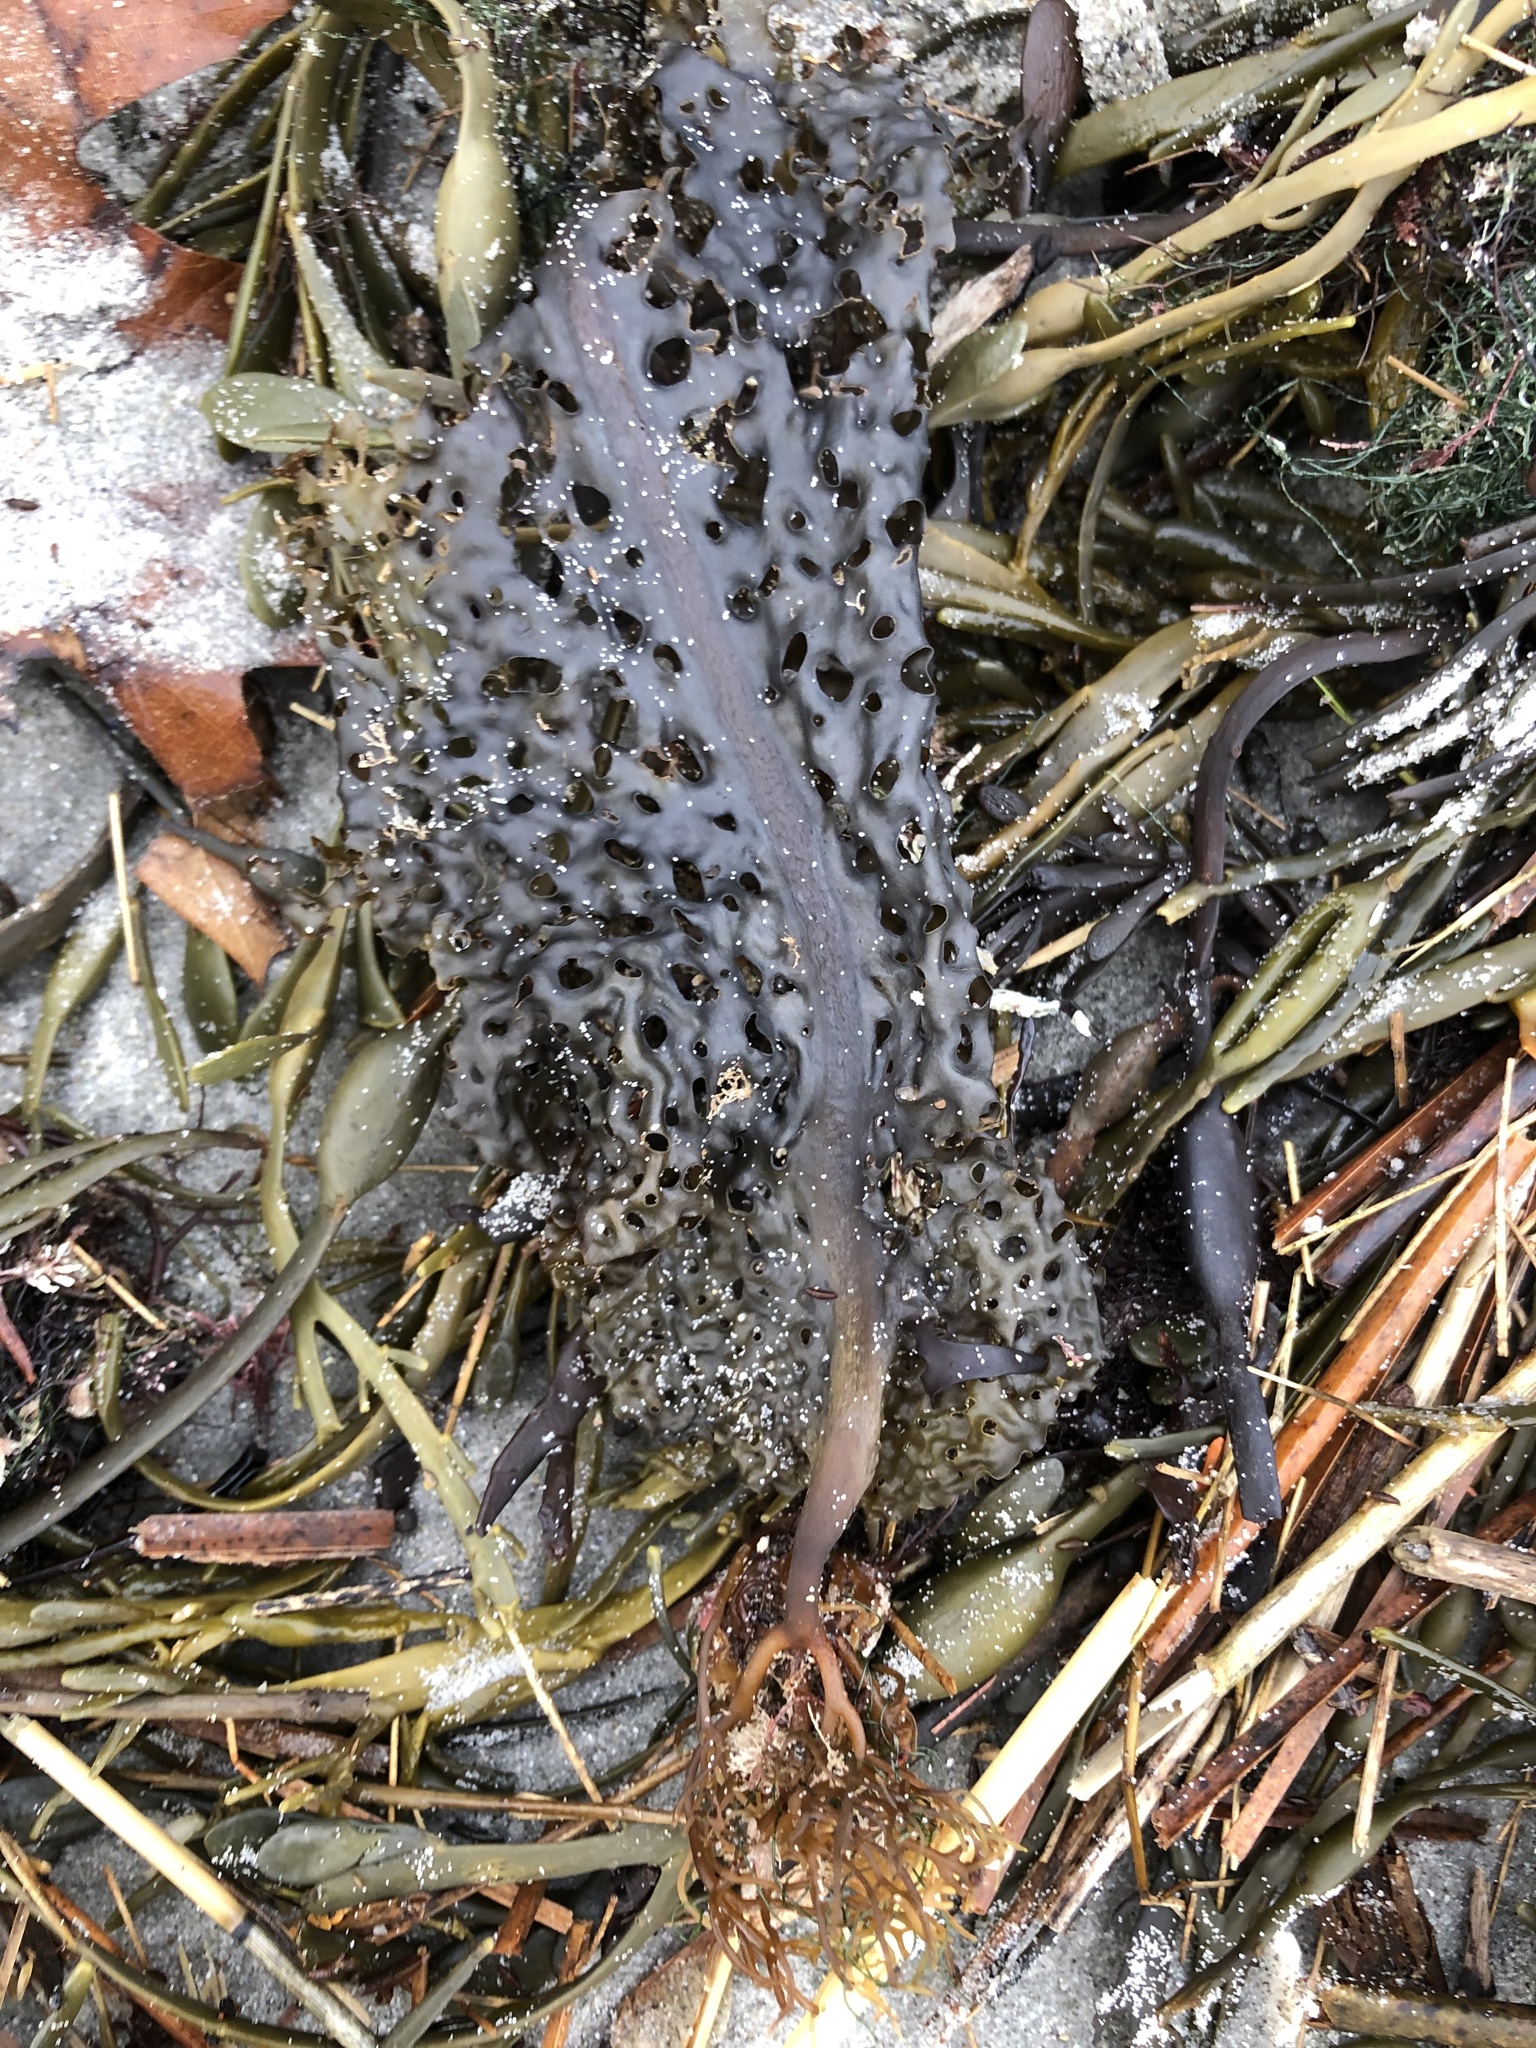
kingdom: Chromista
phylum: Ochrophyta
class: Phaeophyceae
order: Laminariales
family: Costariaceae
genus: Agarum
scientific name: Agarum clathratum
